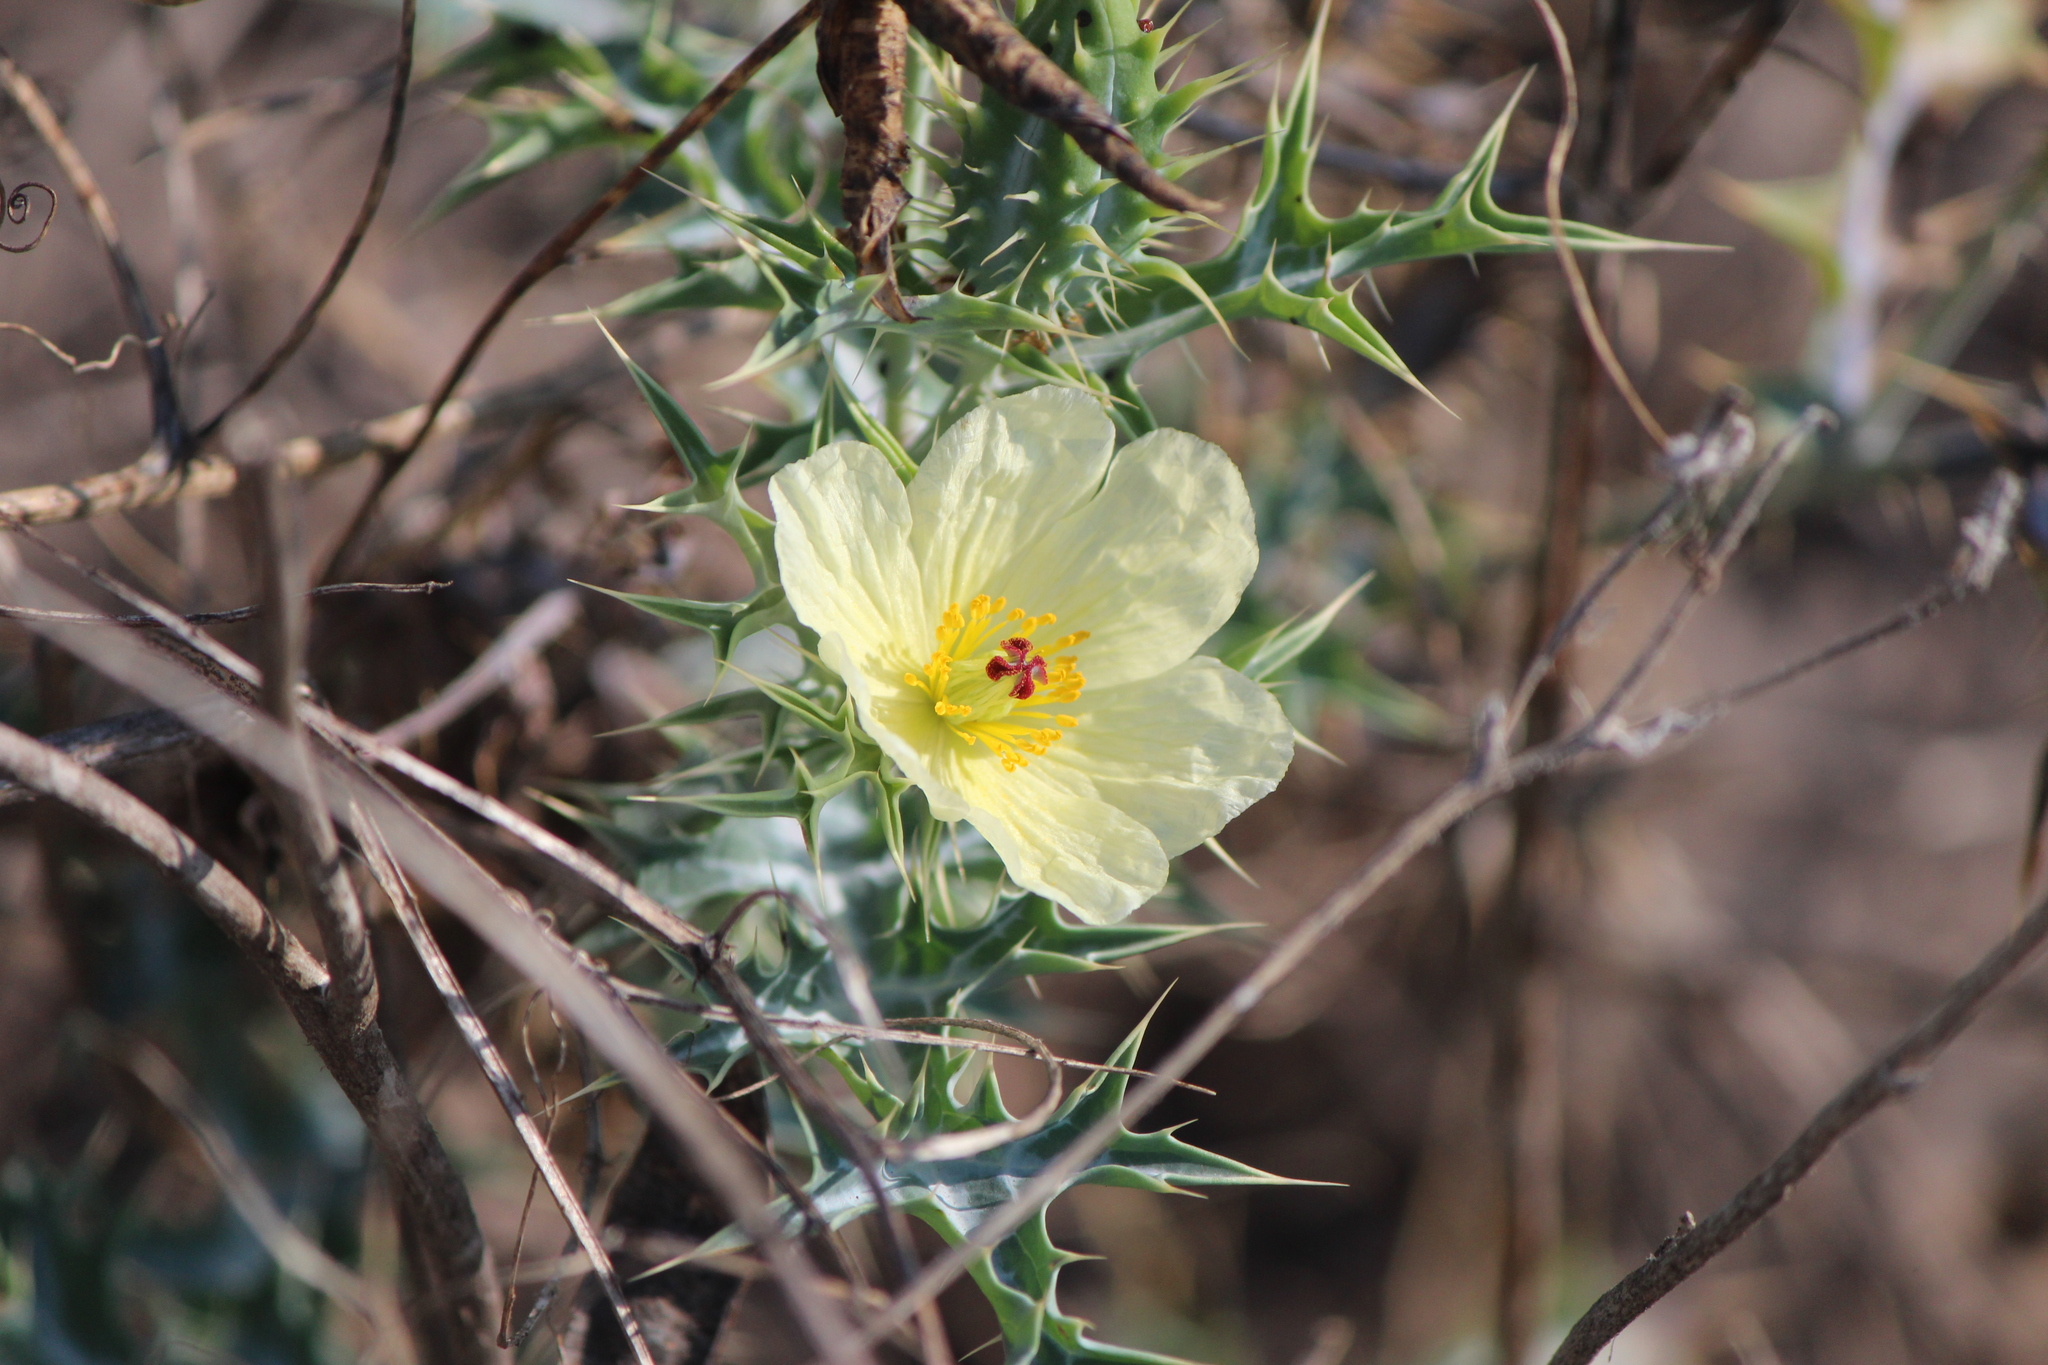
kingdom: Plantae
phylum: Tracheophyta
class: Magnoliopsida
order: Ranunculales
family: Papaveraceae
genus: Argemone
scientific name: Argemone ochroleuca
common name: White-flower mexican-poppy
